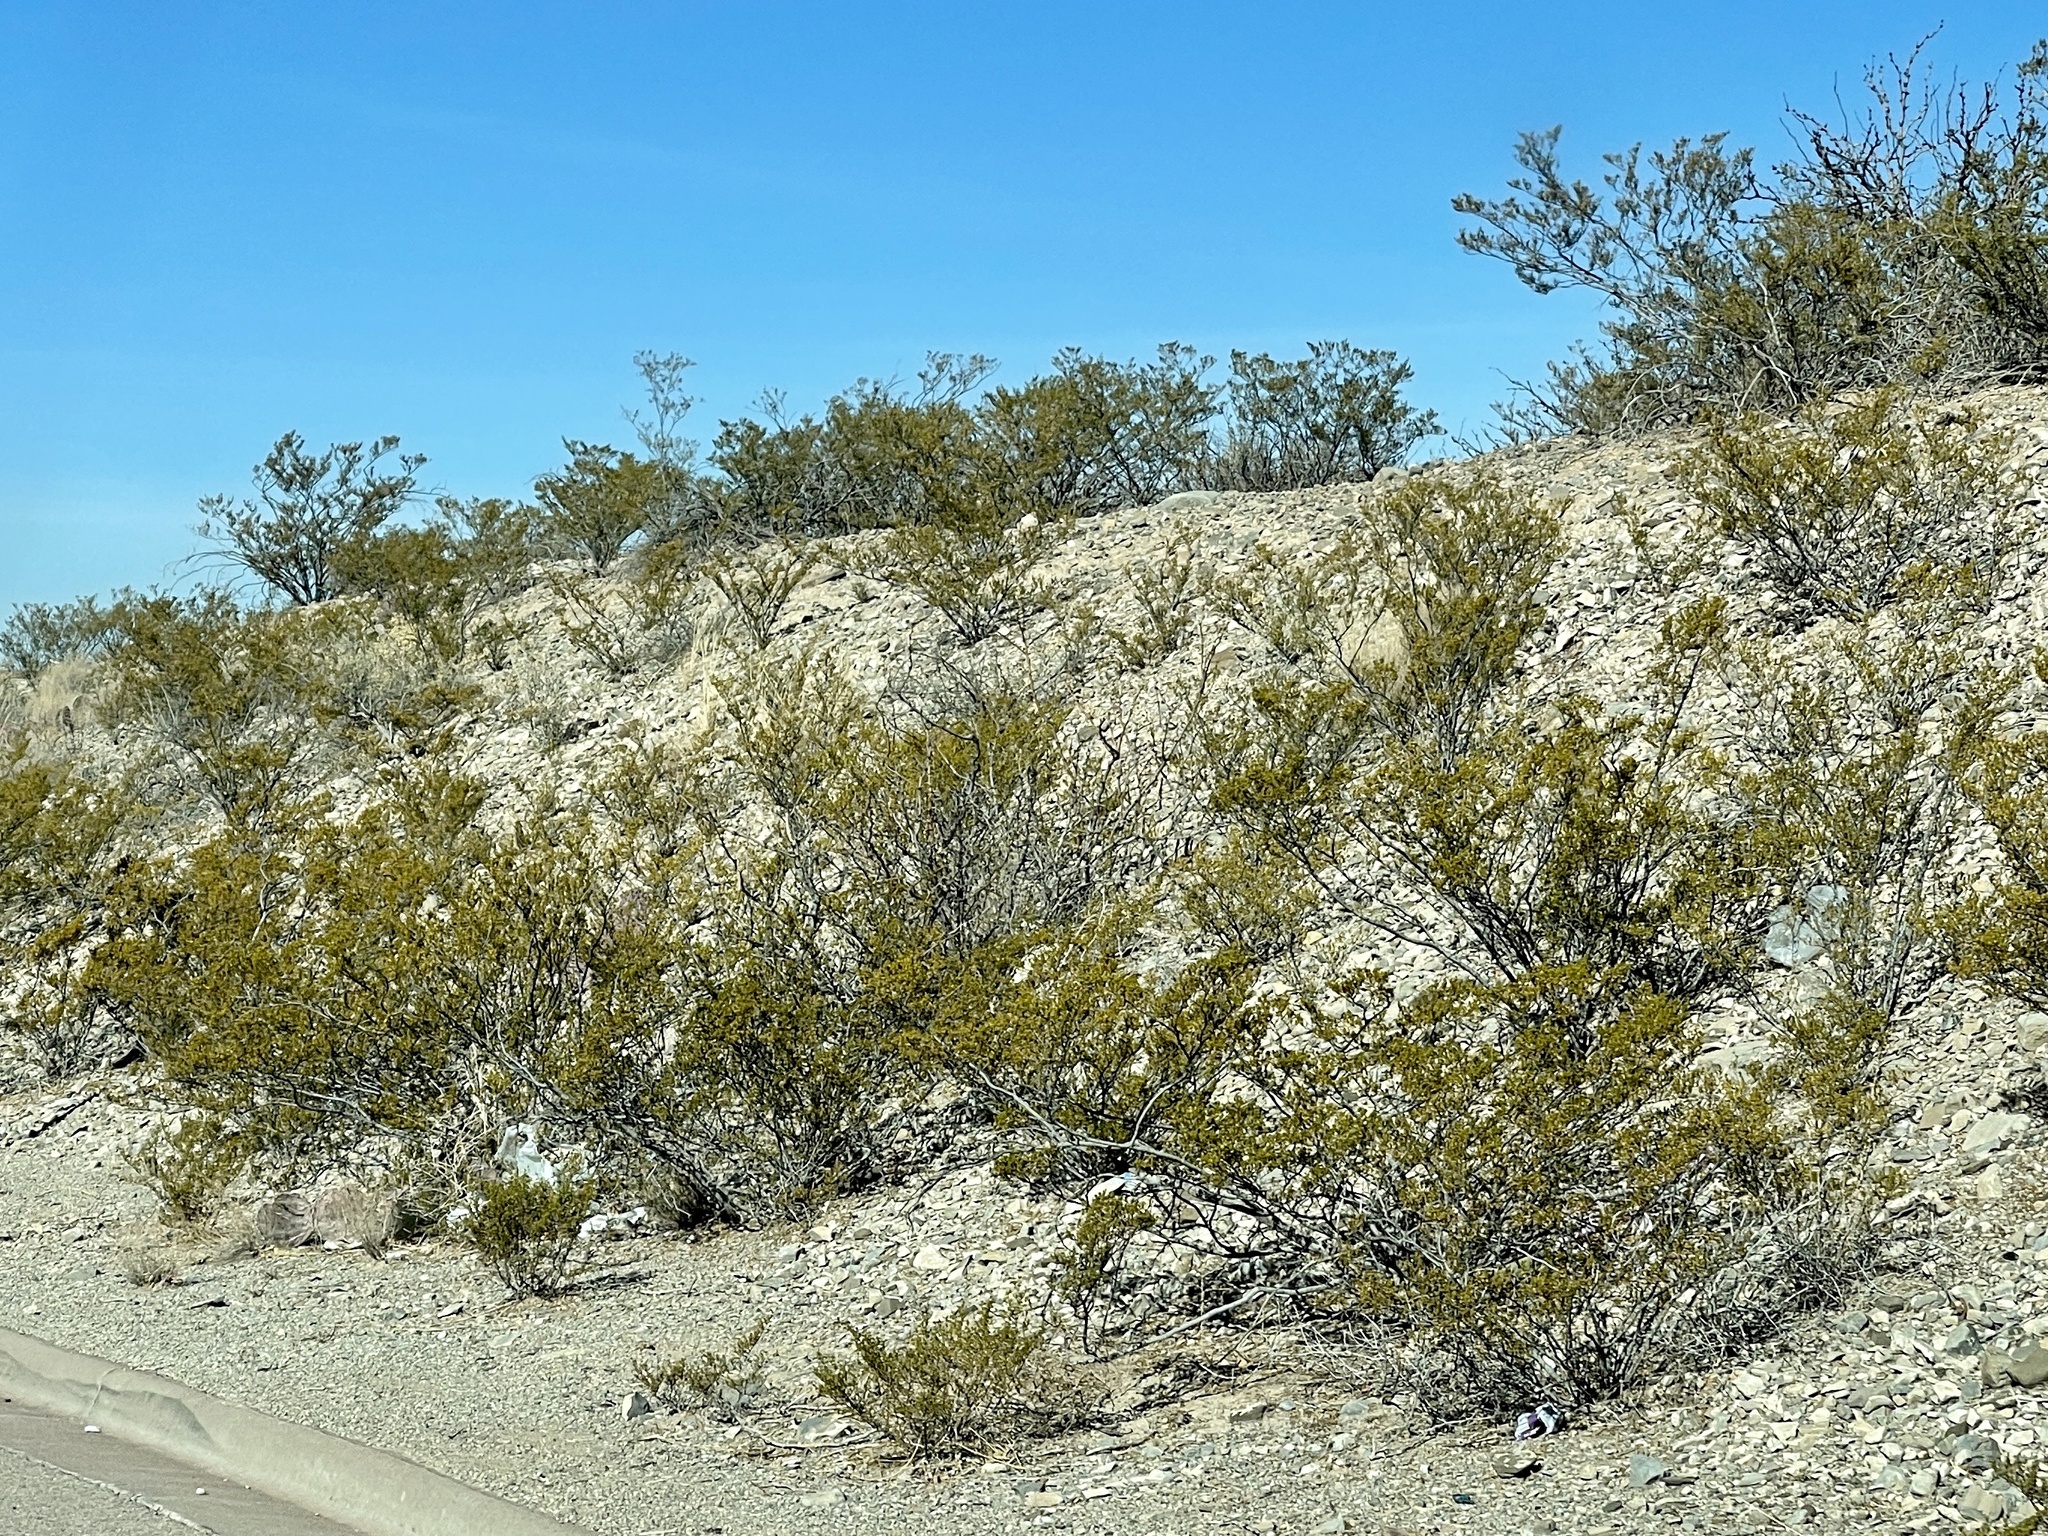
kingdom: Plantae
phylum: Tracheophyta
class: Magnoliopsida
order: Zygophyllales
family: Zygophyllaceae
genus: Larrea
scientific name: Larrea tridentata
